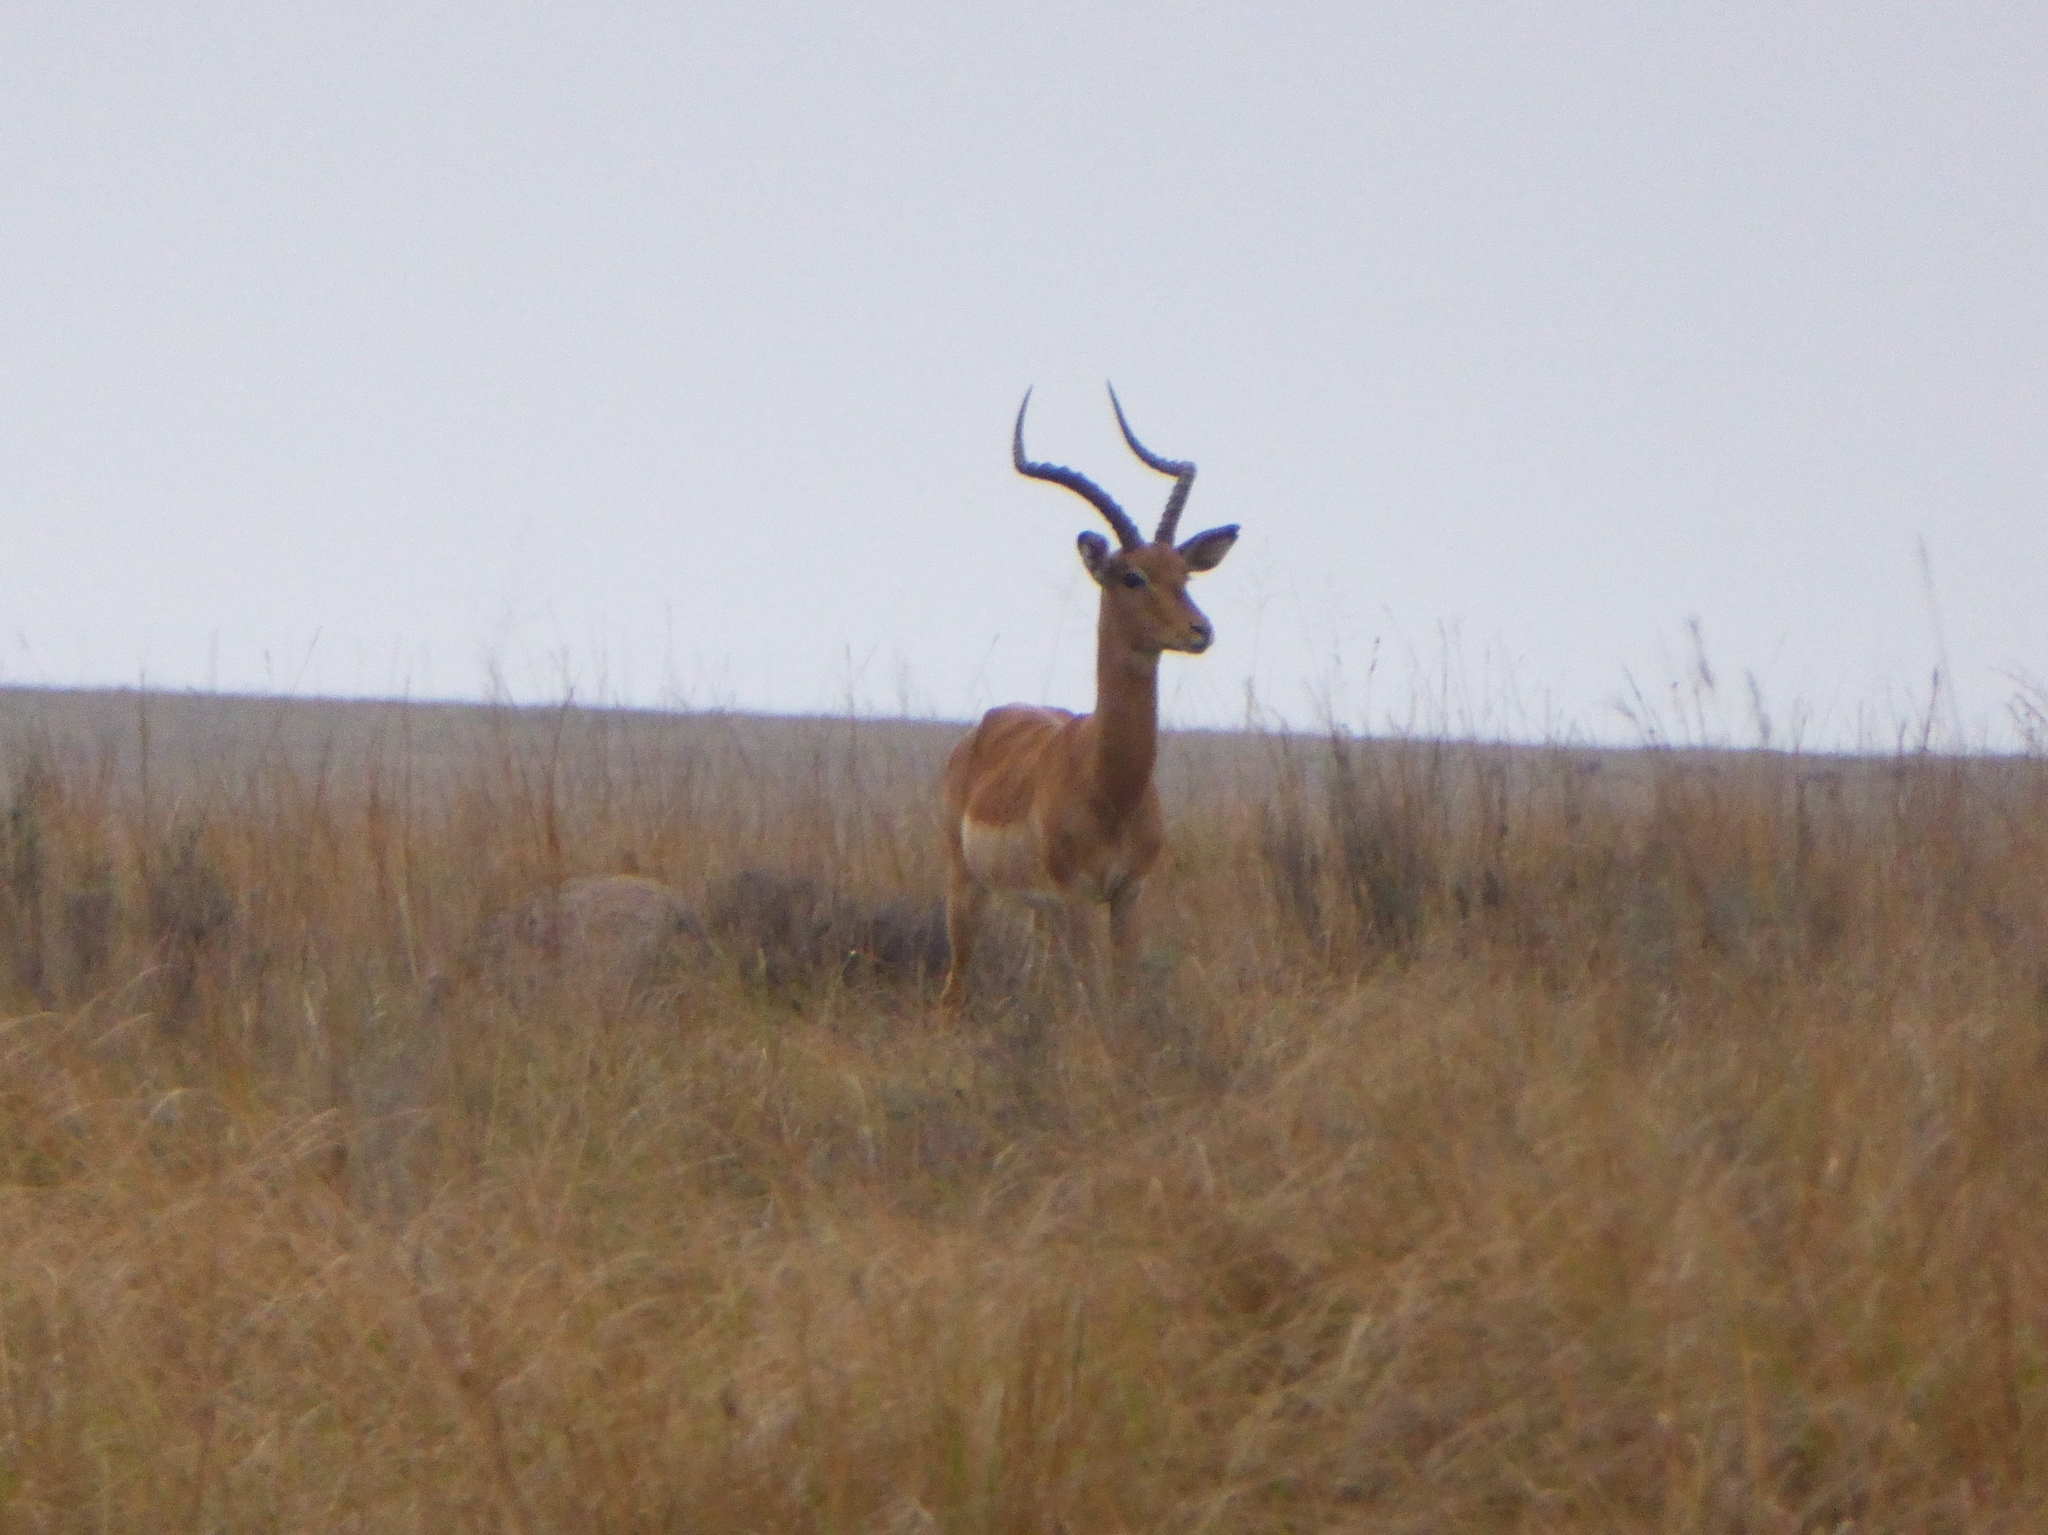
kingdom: Animalia
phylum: Chordata
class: Mammalia
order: Artiodactyla
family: Bovidae
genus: Aepyceros
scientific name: Aepyceros melampus
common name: Impala
